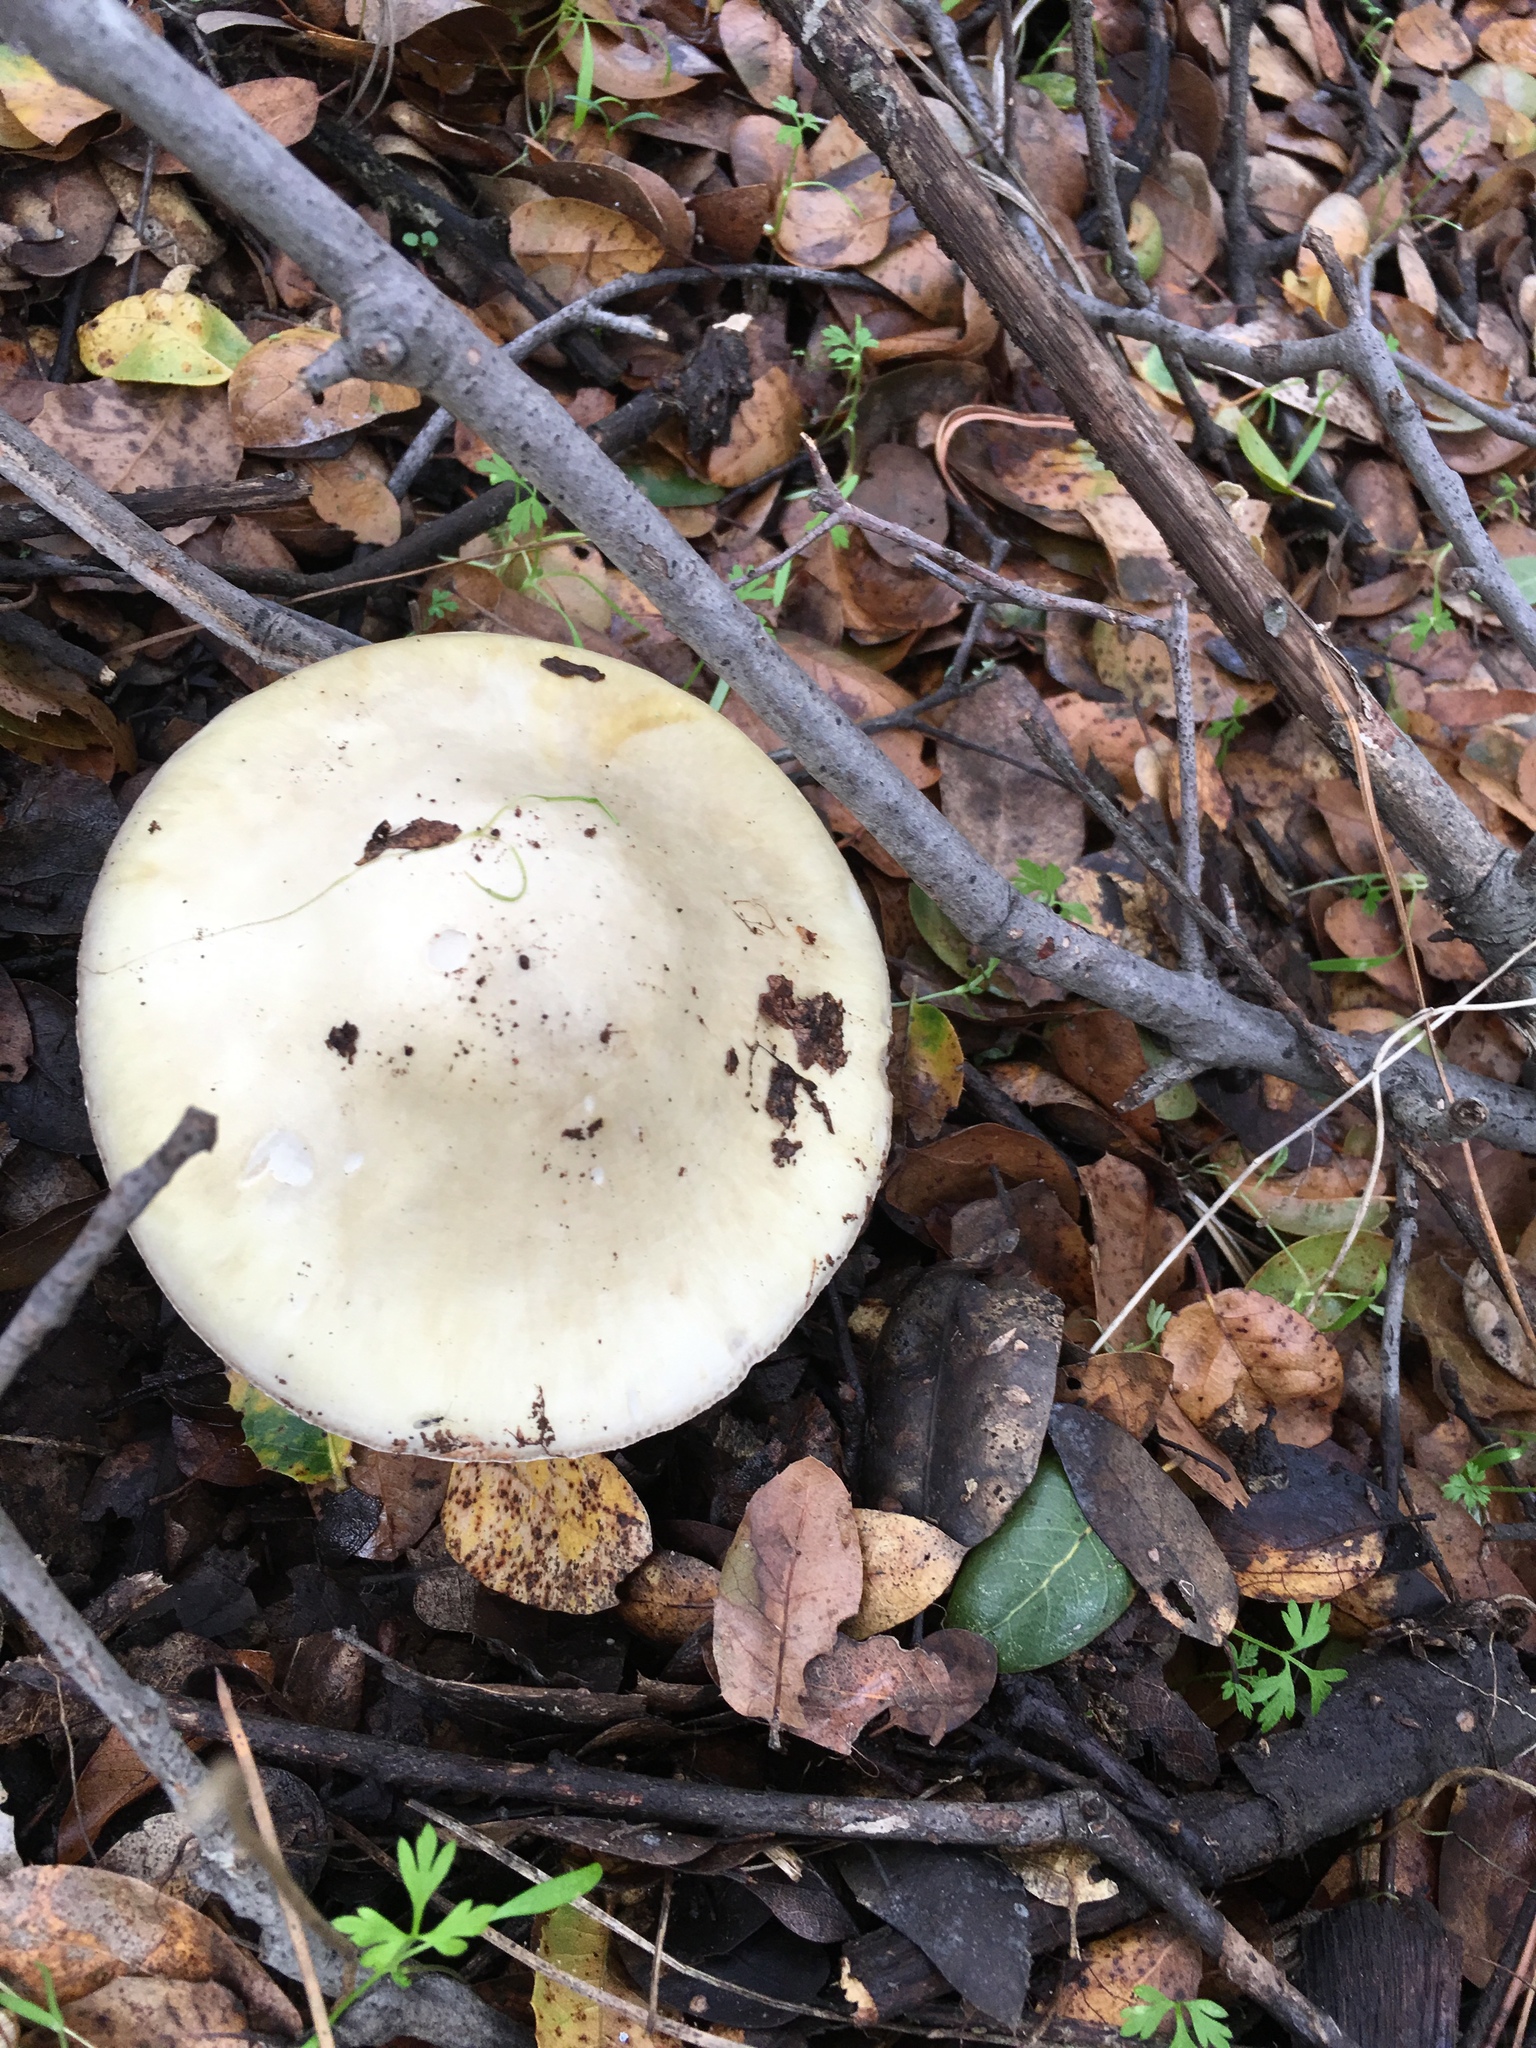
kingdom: Fungi
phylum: Basidiomycota
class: Agaricomycetes
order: Agaricales
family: Amanitaceae
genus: Amanita
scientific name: Amanita phalloides
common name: Death cap
